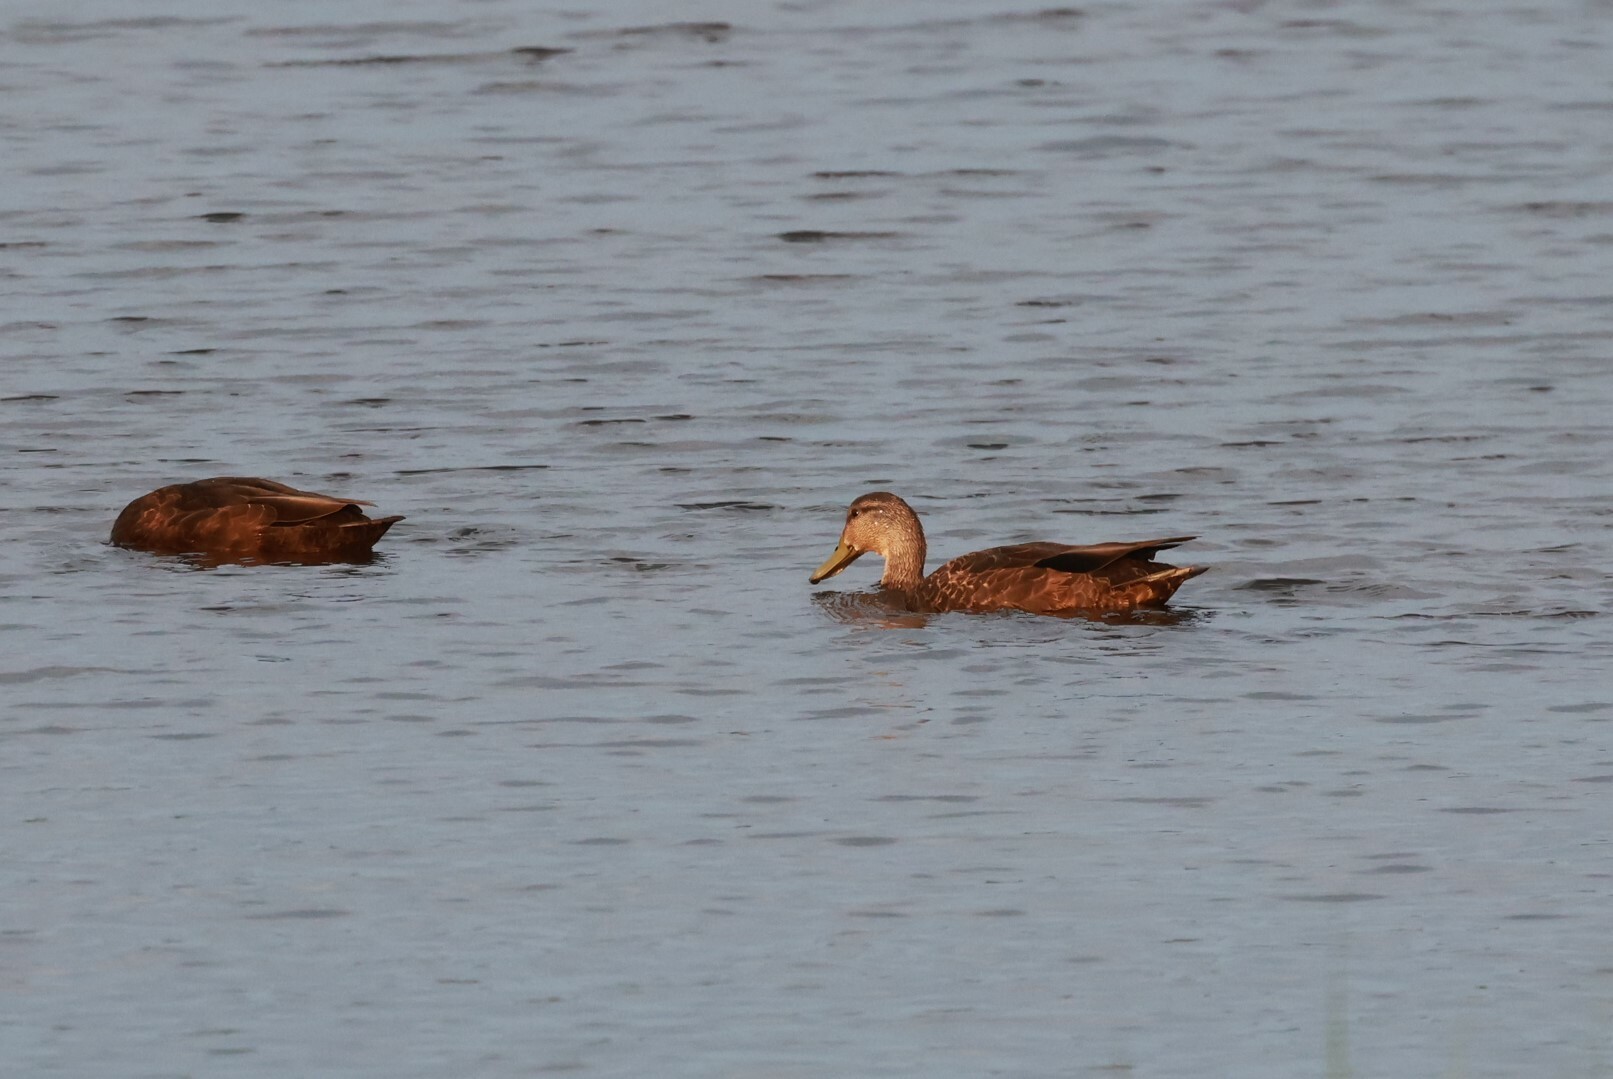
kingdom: Animalia
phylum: Chordata
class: Aves
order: Anseriformes
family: Anatidae
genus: Anas
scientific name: Anas rubripes
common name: American black duck
